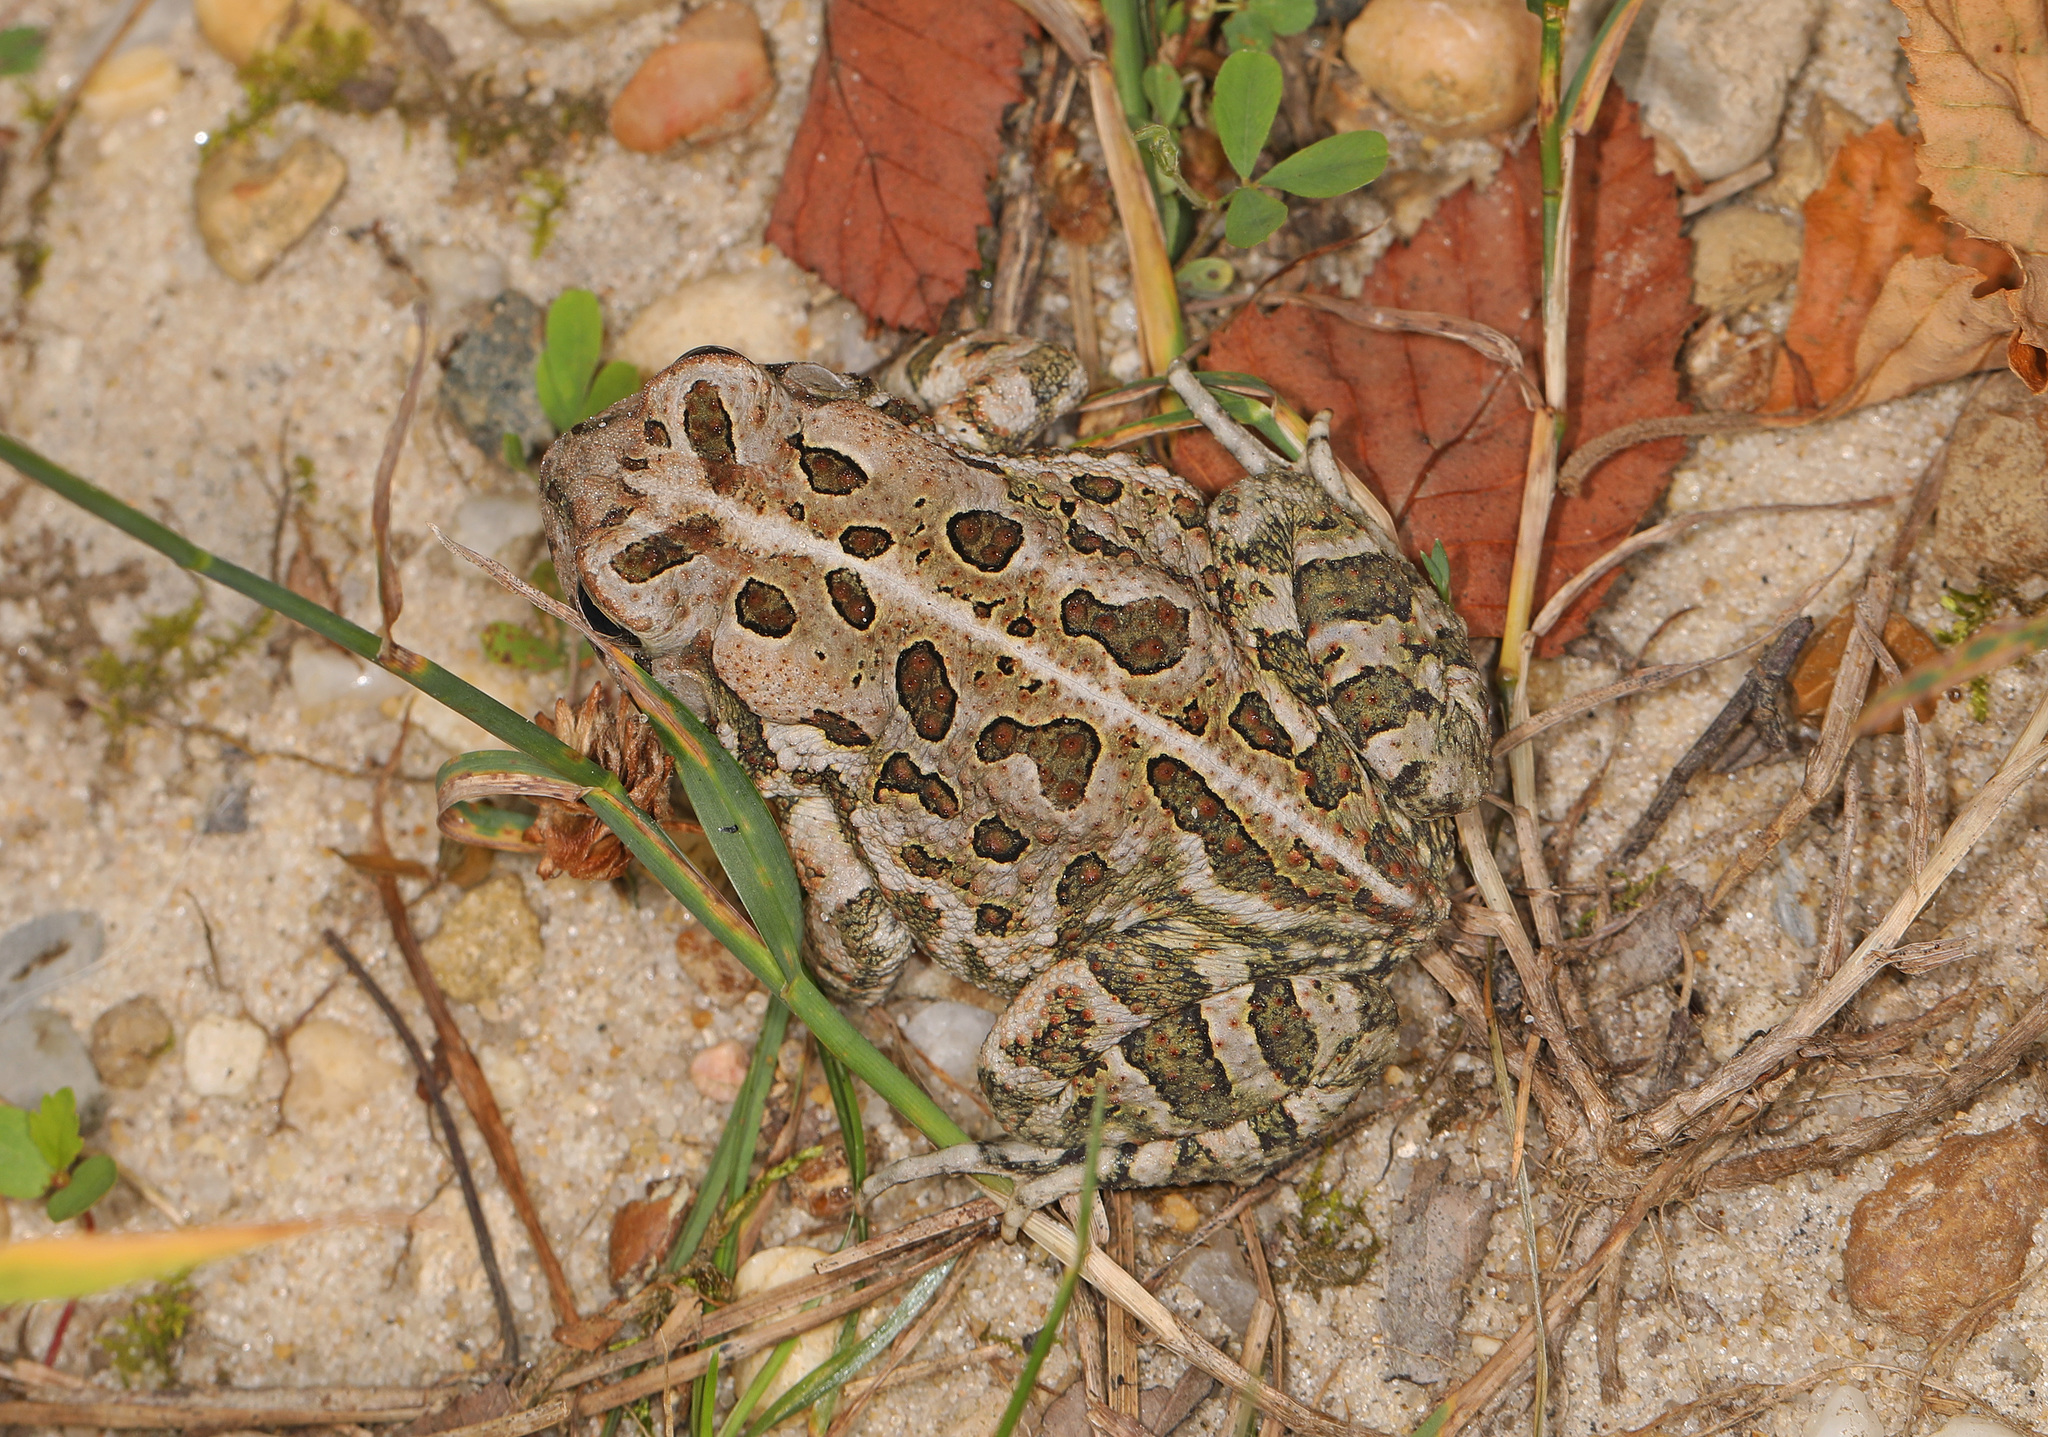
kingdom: Animalia
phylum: Chordata
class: Amphibia
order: Anura
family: Bufonidae
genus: Anaxyrus
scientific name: Anaxyrus fowleri
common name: Fowler's toad
